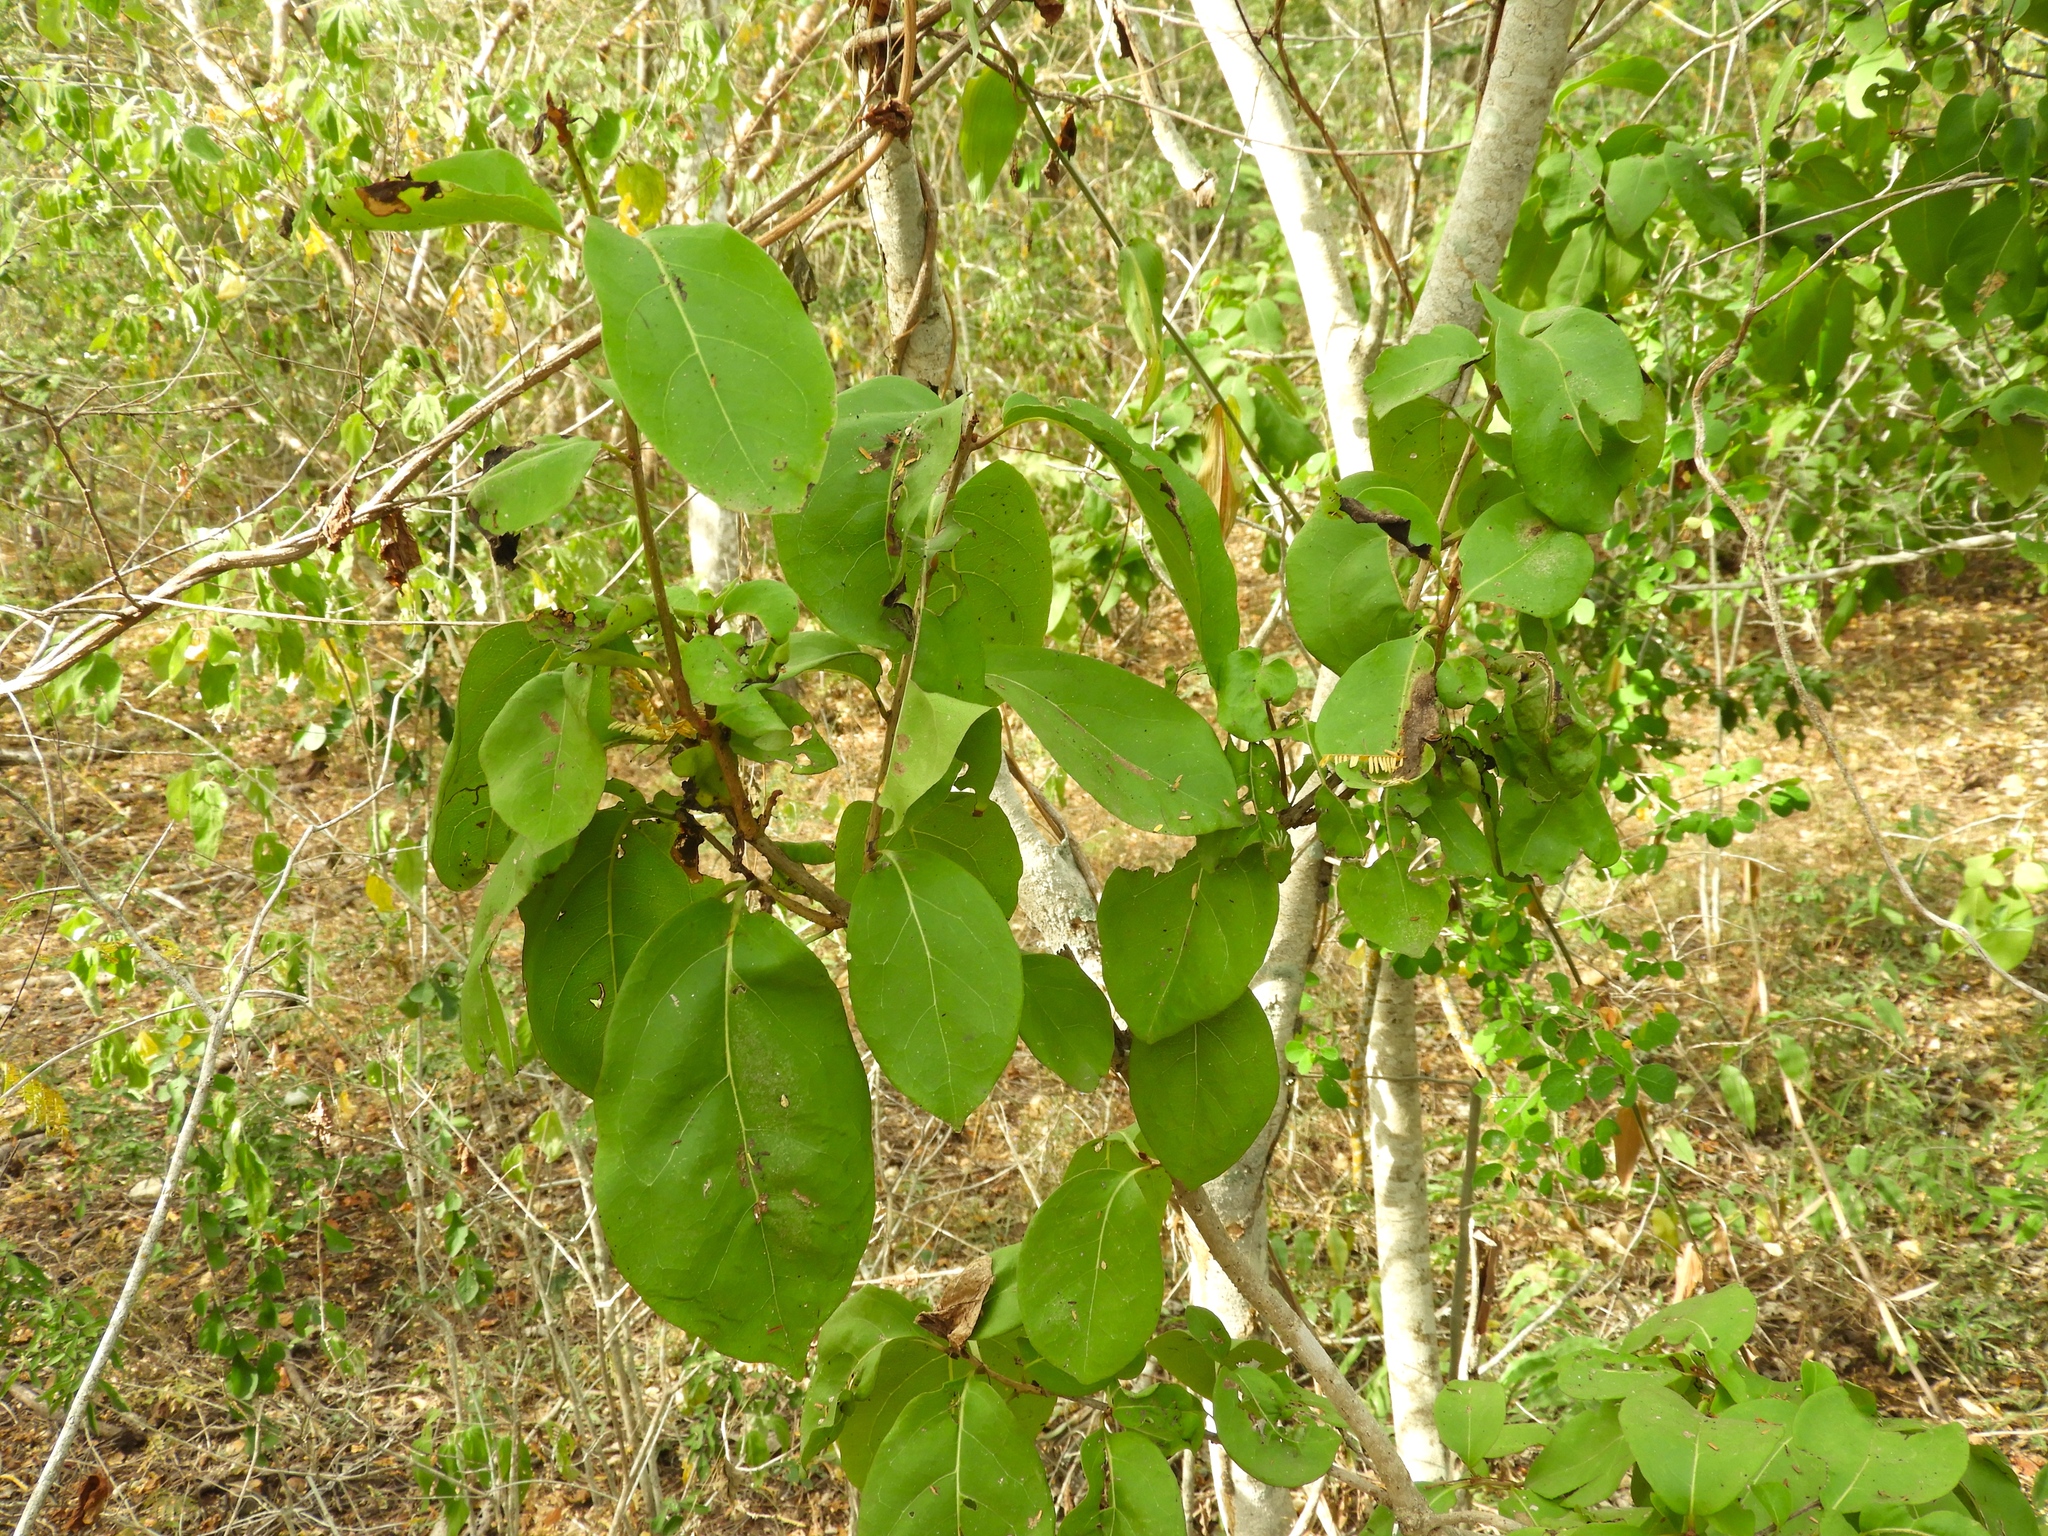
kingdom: Plantae
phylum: Tracheophyta
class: Magnoliopsida
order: Caryophyllales
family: Nyctaginaceae
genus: Neea
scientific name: Neea psychotrioides
